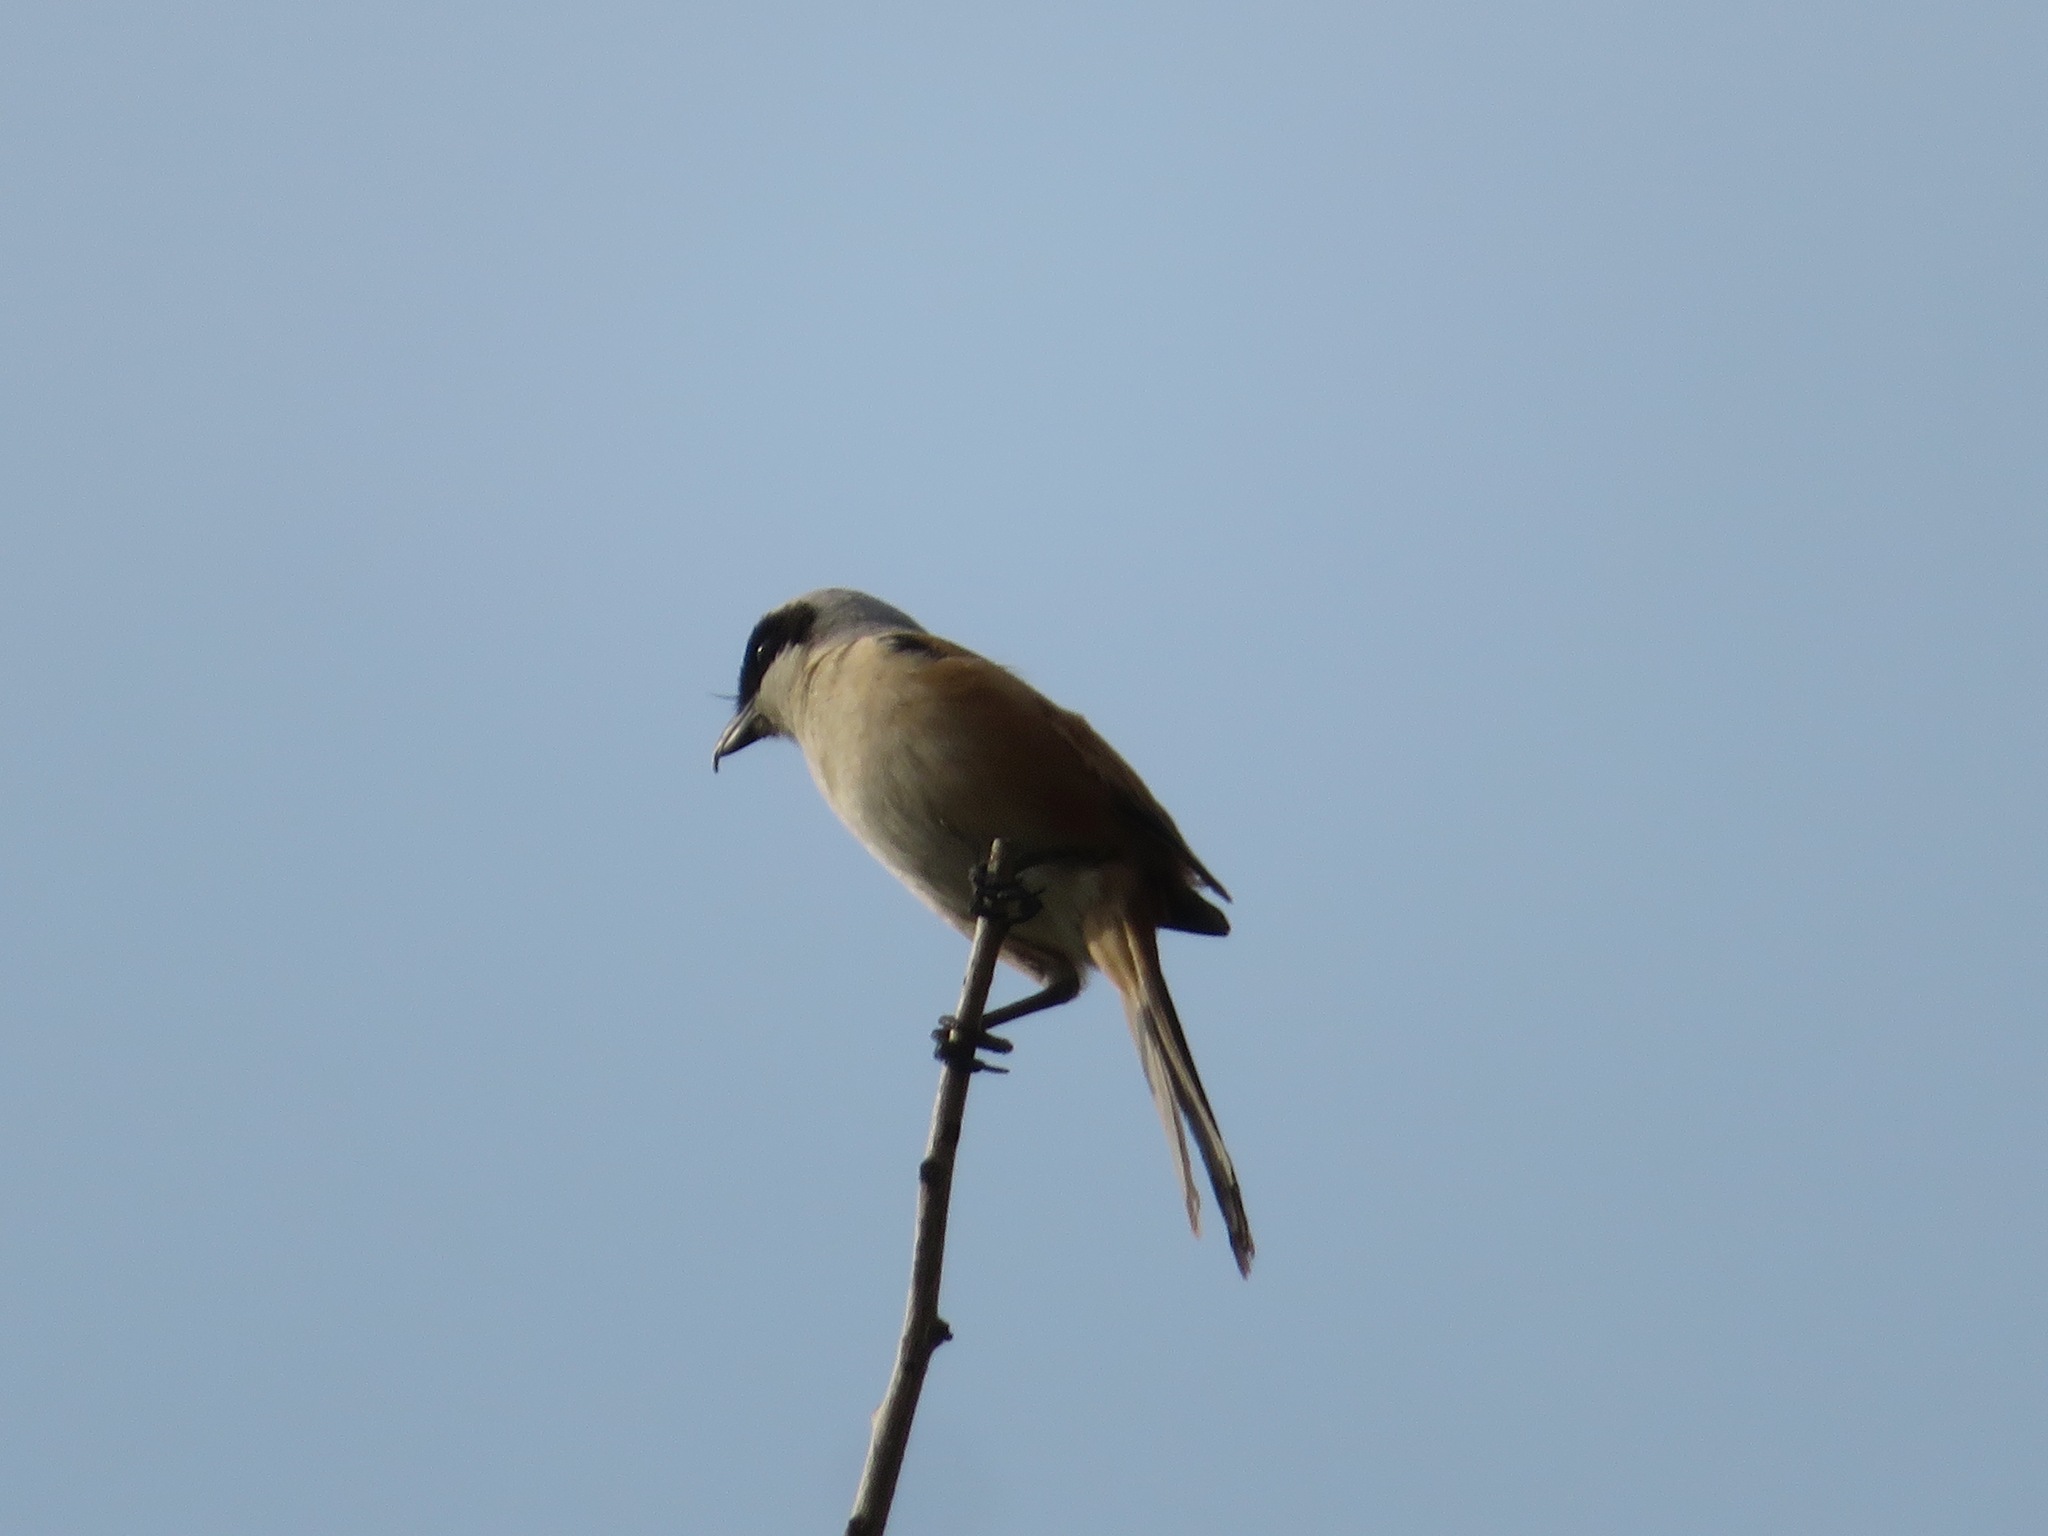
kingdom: Animalia
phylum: Chordata
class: Aves
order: Passeriformes
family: Laniidae
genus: Lanius
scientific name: Lanius schach
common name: Long-tailed shrike
